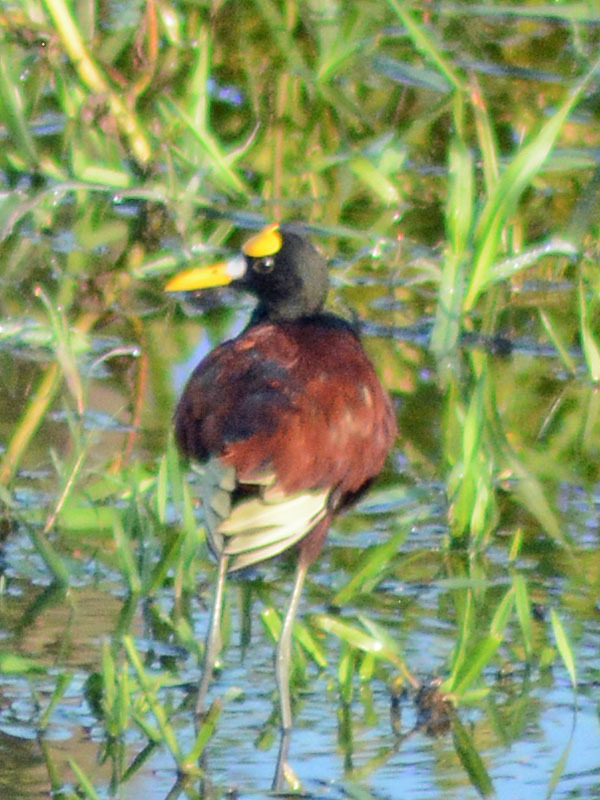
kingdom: Animalia
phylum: Chordata
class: Aves
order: Charadriiformes
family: Jacanidae
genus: Jacana
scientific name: Jacana spinosa
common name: Northern jacana
